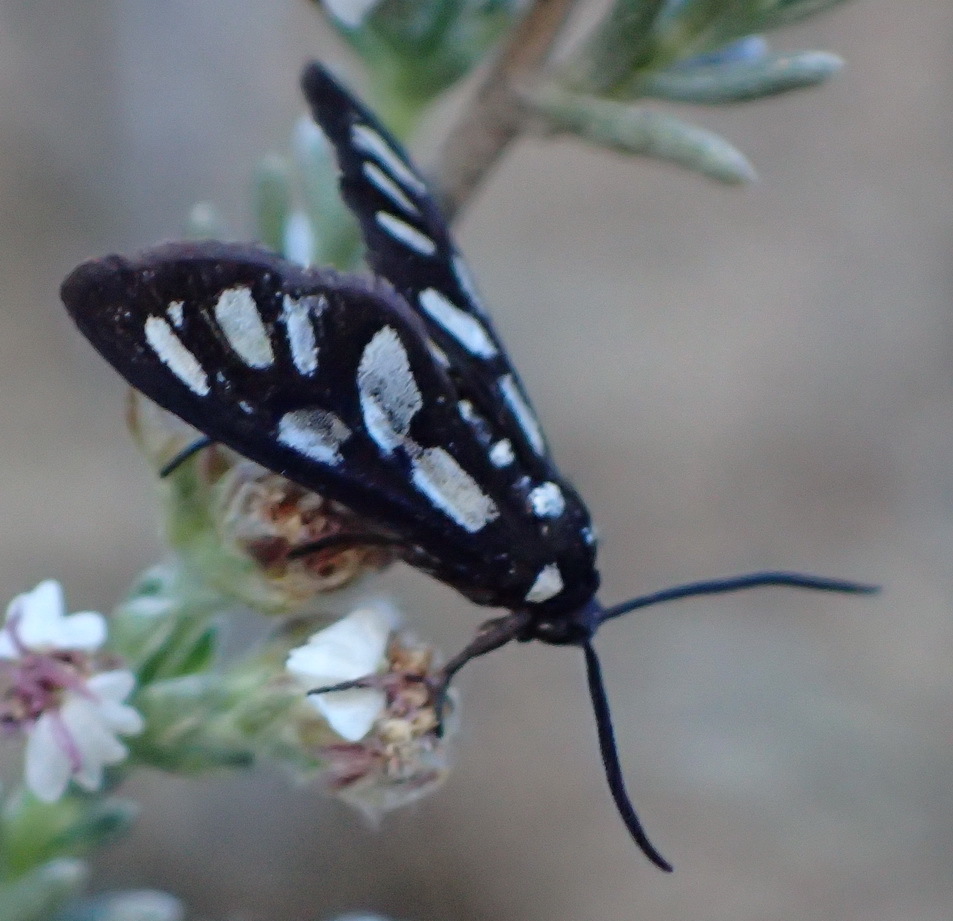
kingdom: Animalia
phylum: Arthropoda
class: Insecta
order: Lepidoptera
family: Erebidae
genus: Amata
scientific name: Amata khoisana
